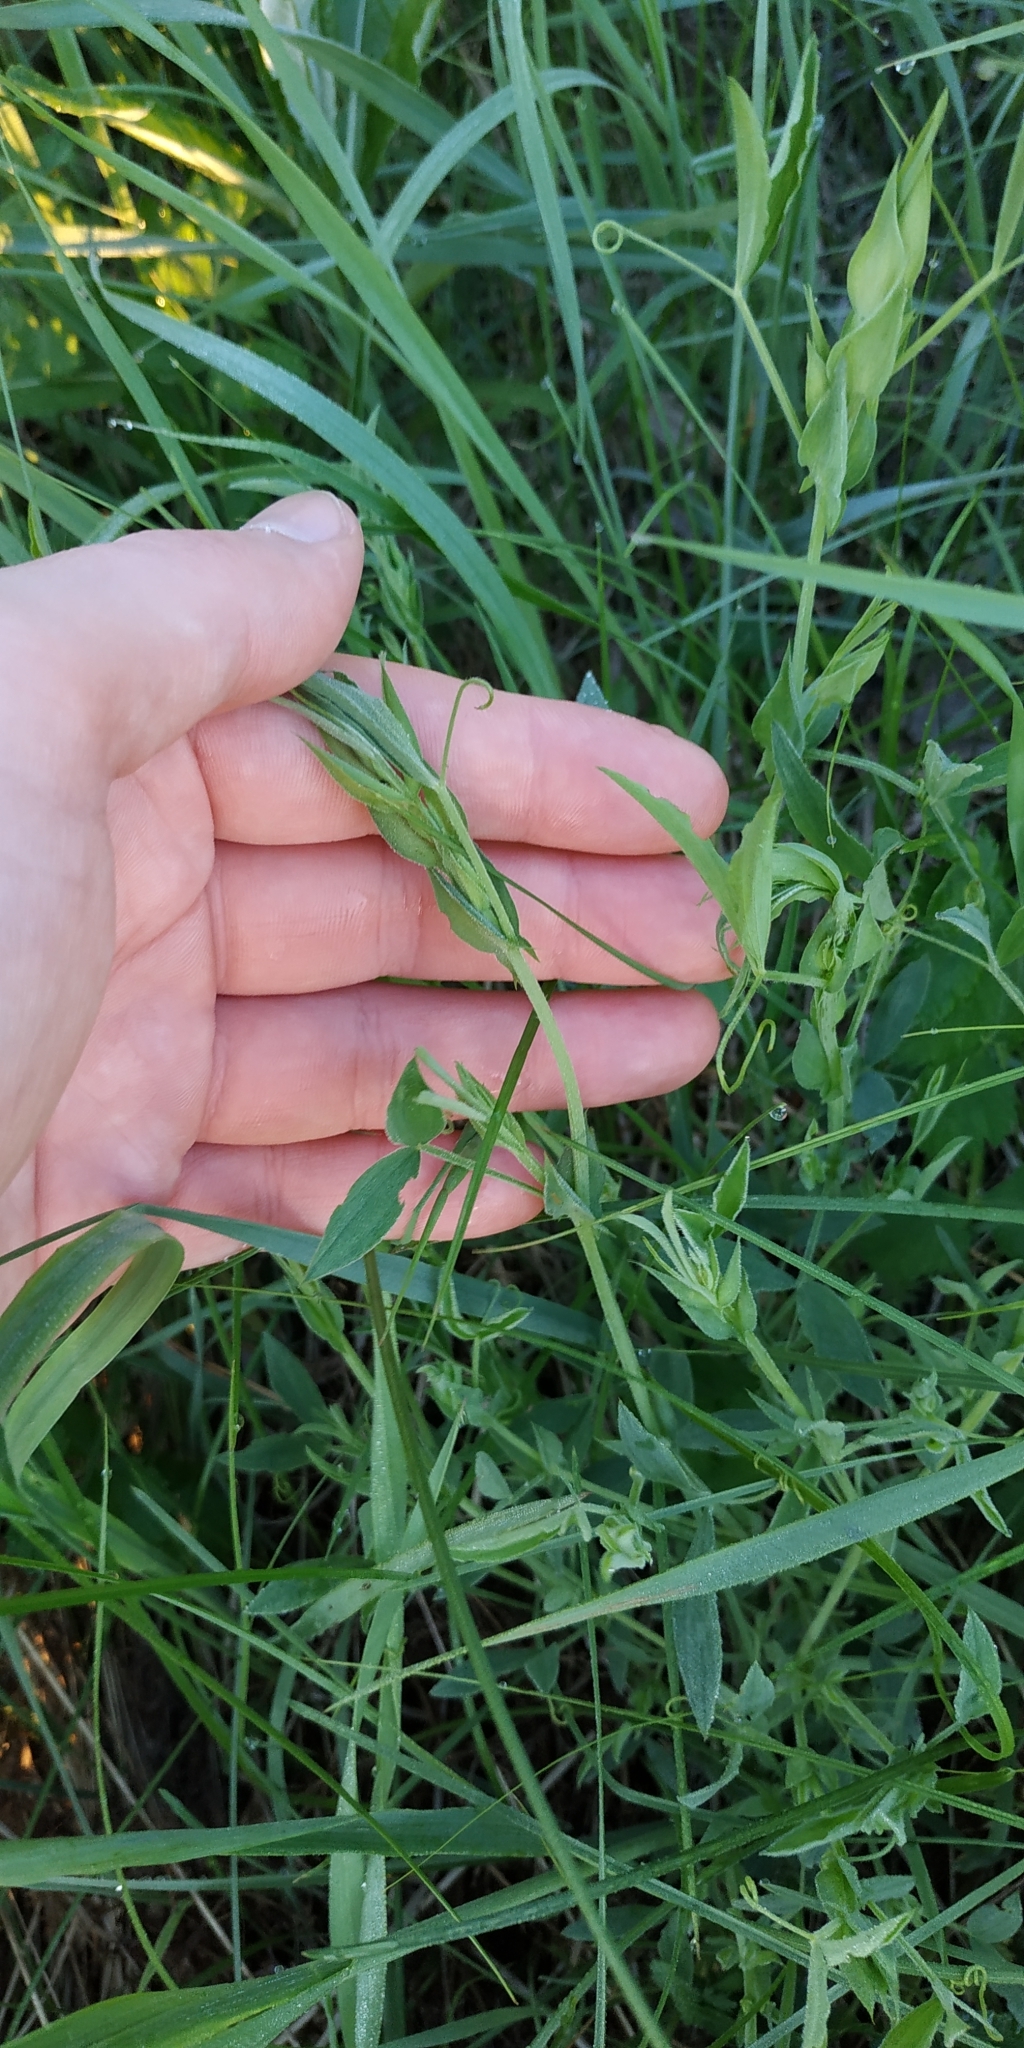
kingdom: Plantae
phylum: Tracheophyta
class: Magnoliopsida
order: Fabales
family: Fabaceae
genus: Lathyrus
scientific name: Lathyrus pratensis
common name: Meadow vetchling
